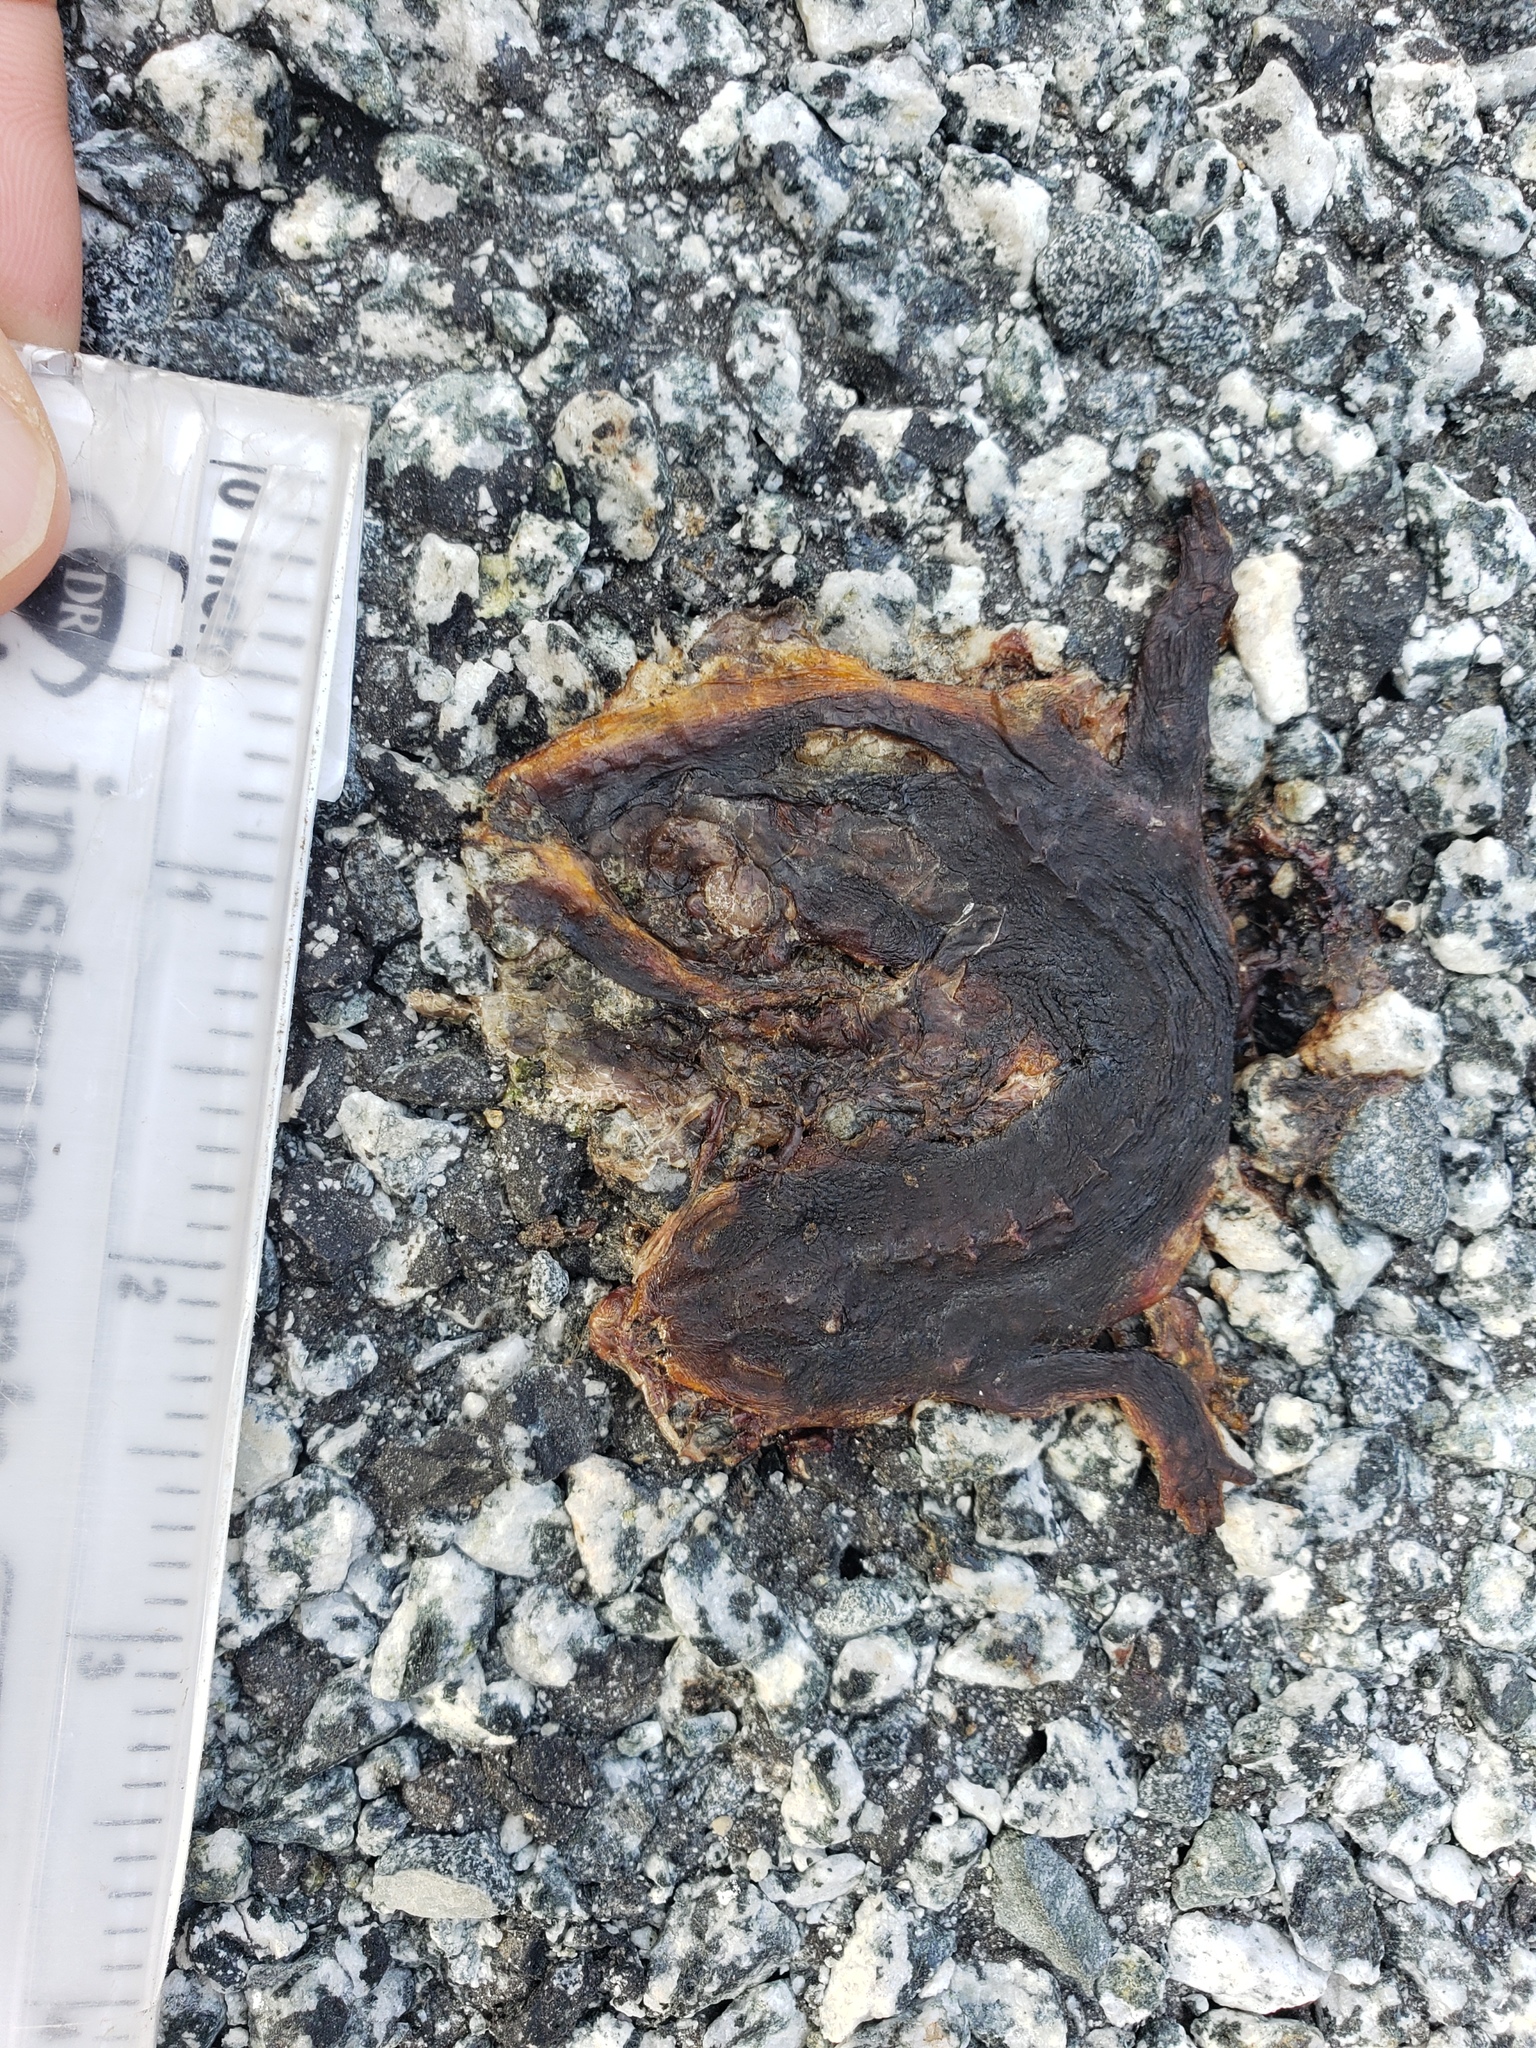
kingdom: Animalia
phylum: Chordata
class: Amphibia
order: Caudata
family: Salamandridae
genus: Taricha
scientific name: Taricha
